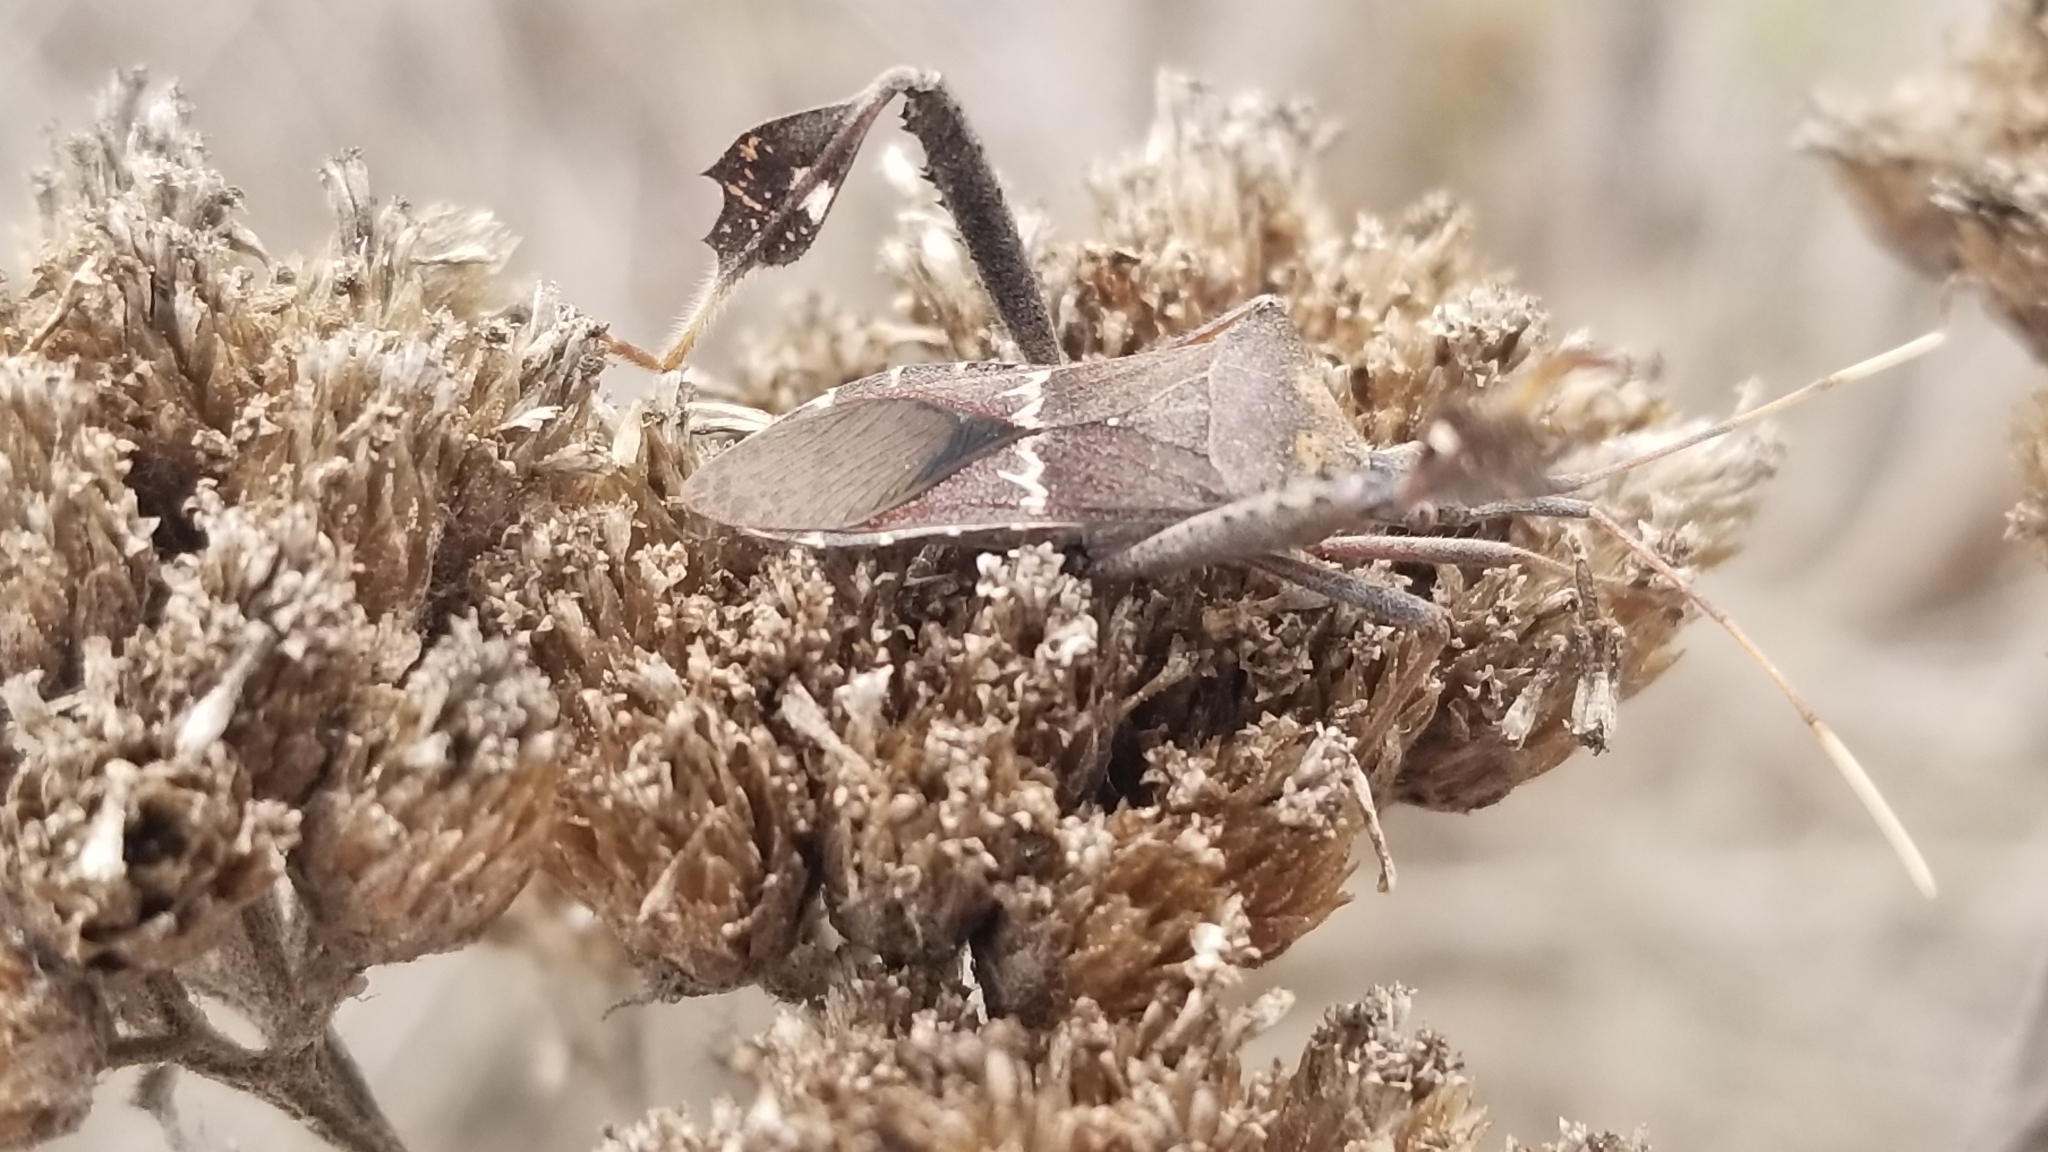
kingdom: Animalia
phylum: Arthropoda
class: Insecta
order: Hemiptera
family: Coreidae
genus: Leptoglossus
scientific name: Leptoglossus zonatus
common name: Large-legged bug
